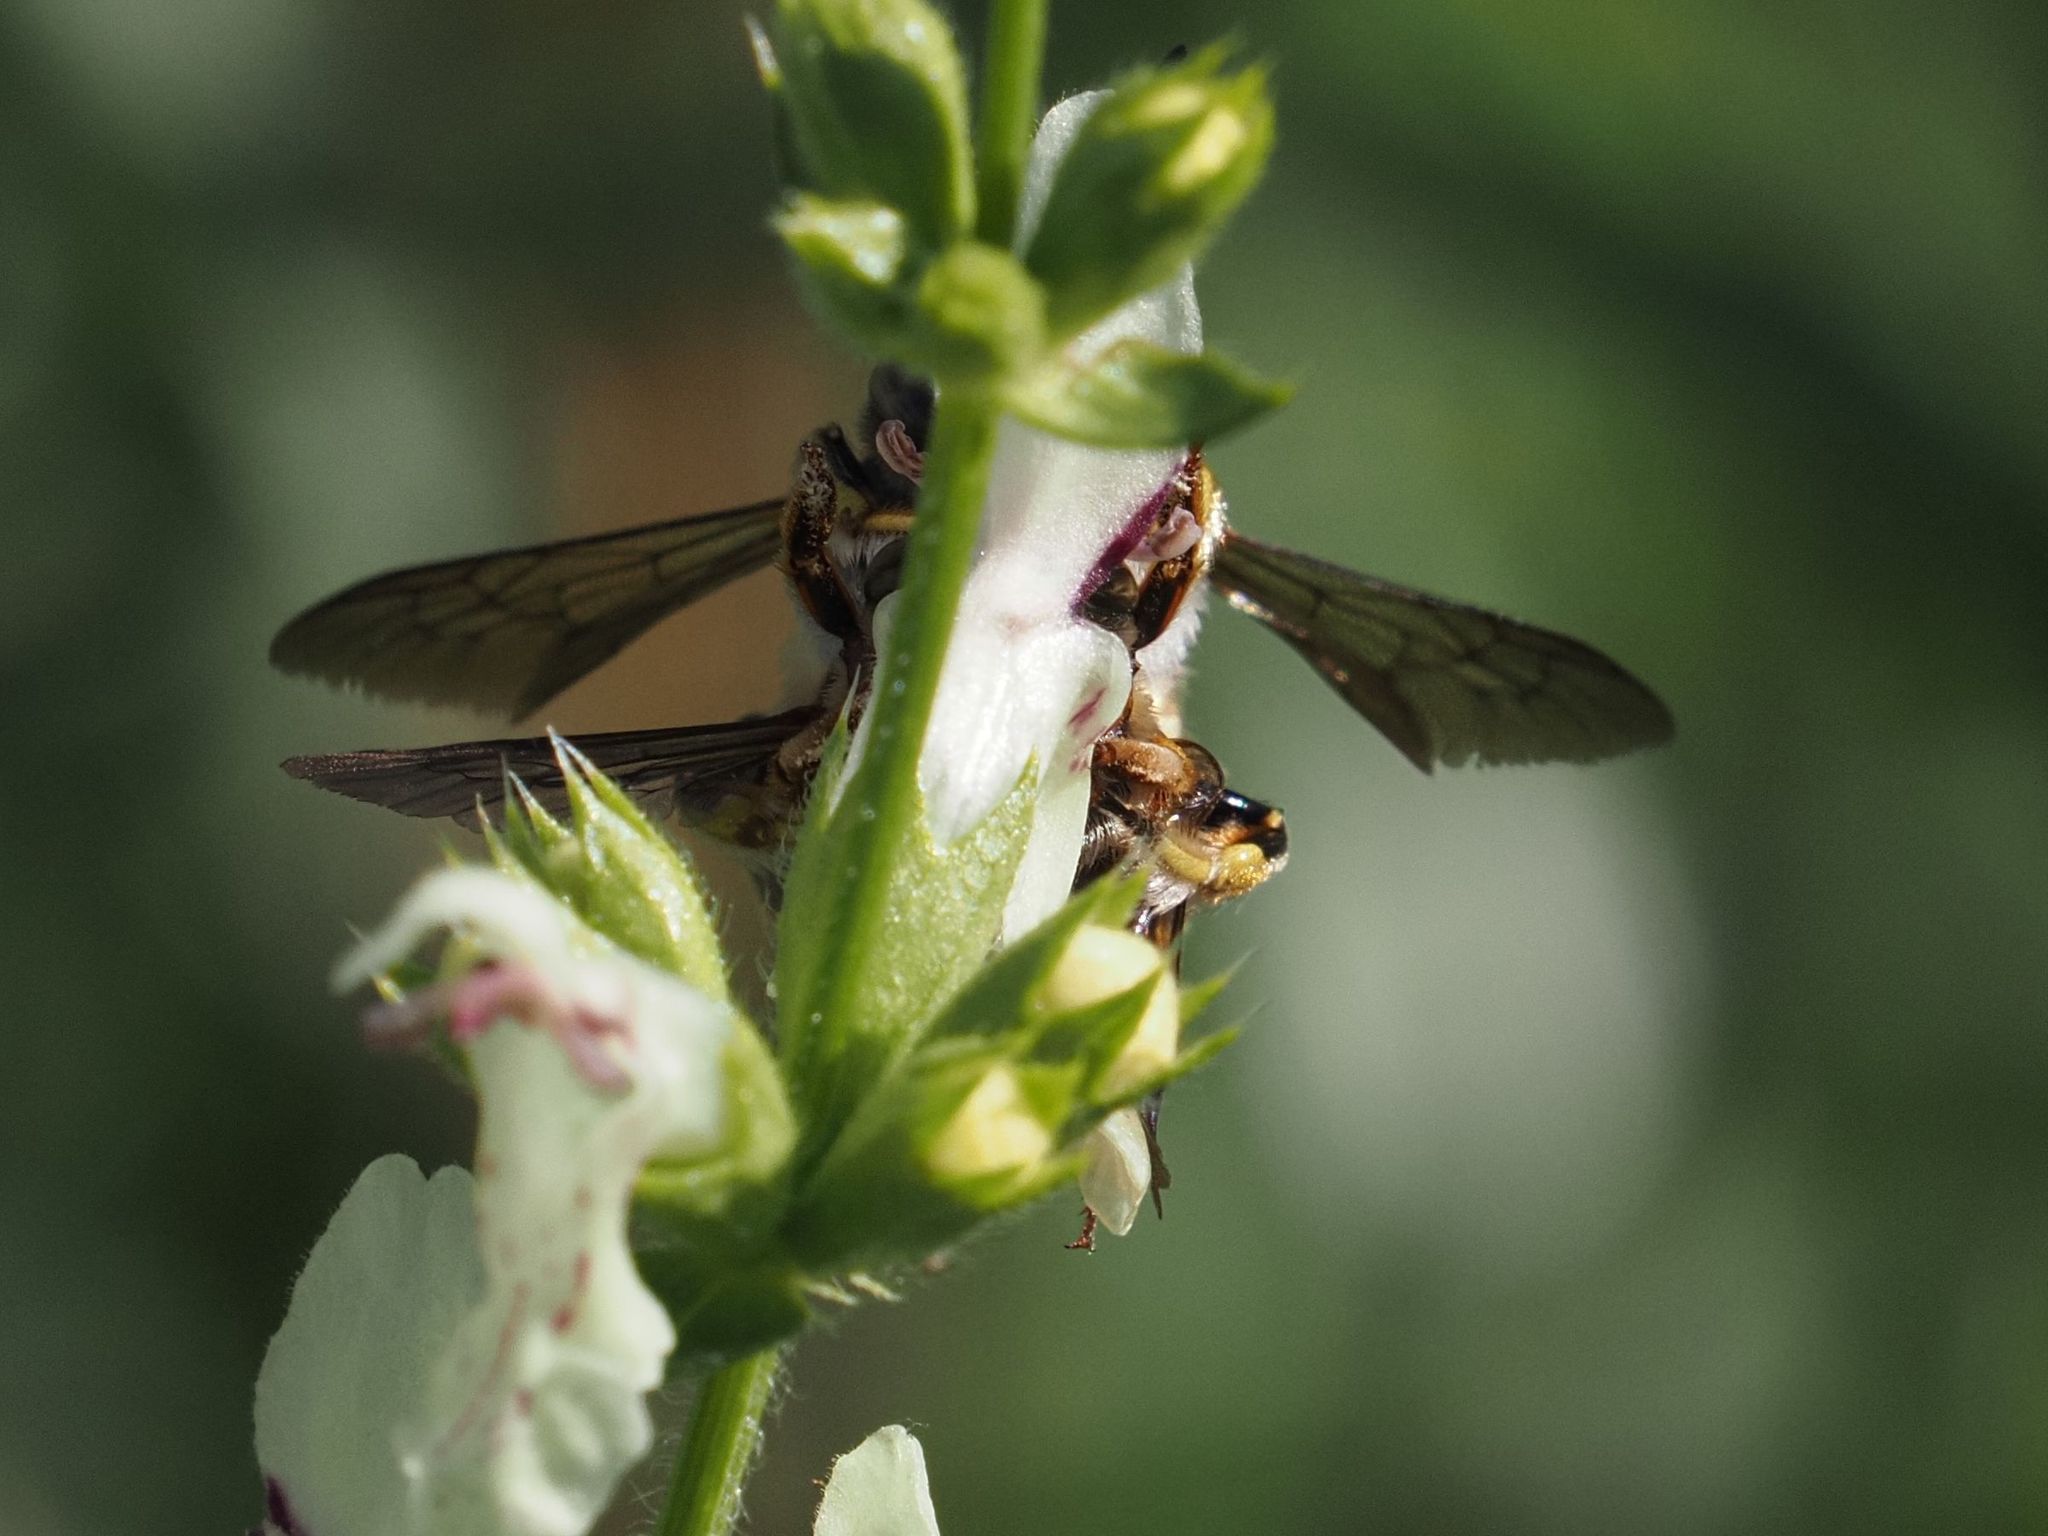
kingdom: Animalia
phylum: Arthropoda
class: Insecta
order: Hymenoptera
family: Megachilidae
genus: Anthidium
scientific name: Anthidium manicatum
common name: Wool carder bee
